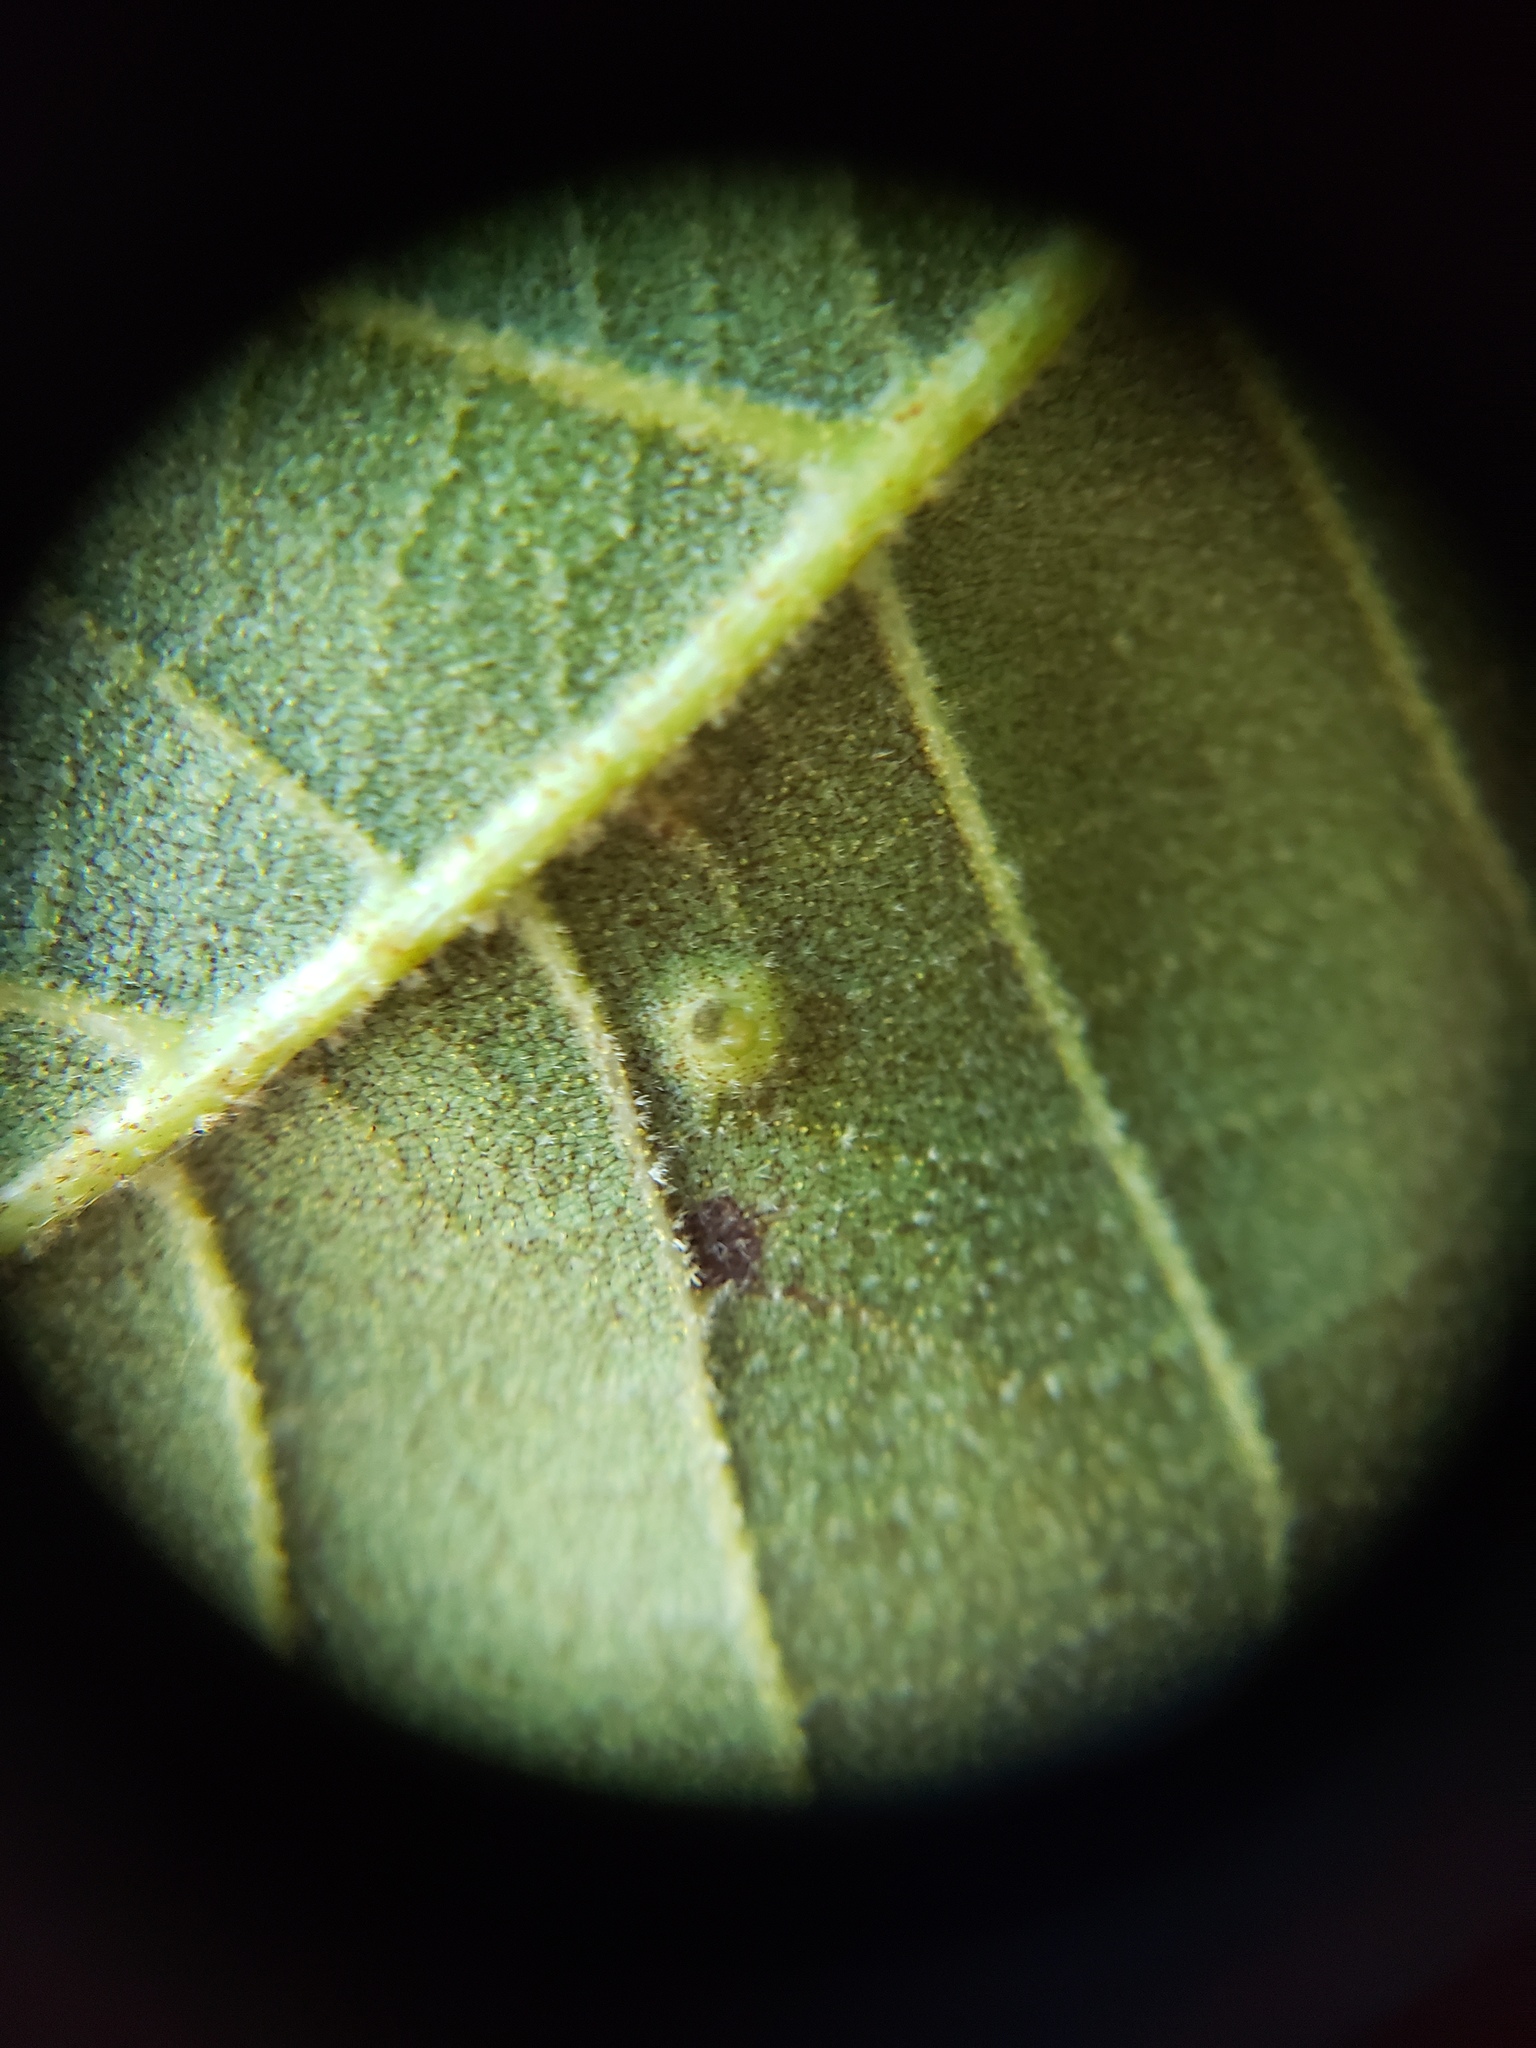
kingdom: Animalia
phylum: Arthropoda
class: Insecta
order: Diptera
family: Cecidomyiidae
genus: Caryomyia
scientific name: Caryomyia tubicola
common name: Hickory bullet gall midge
